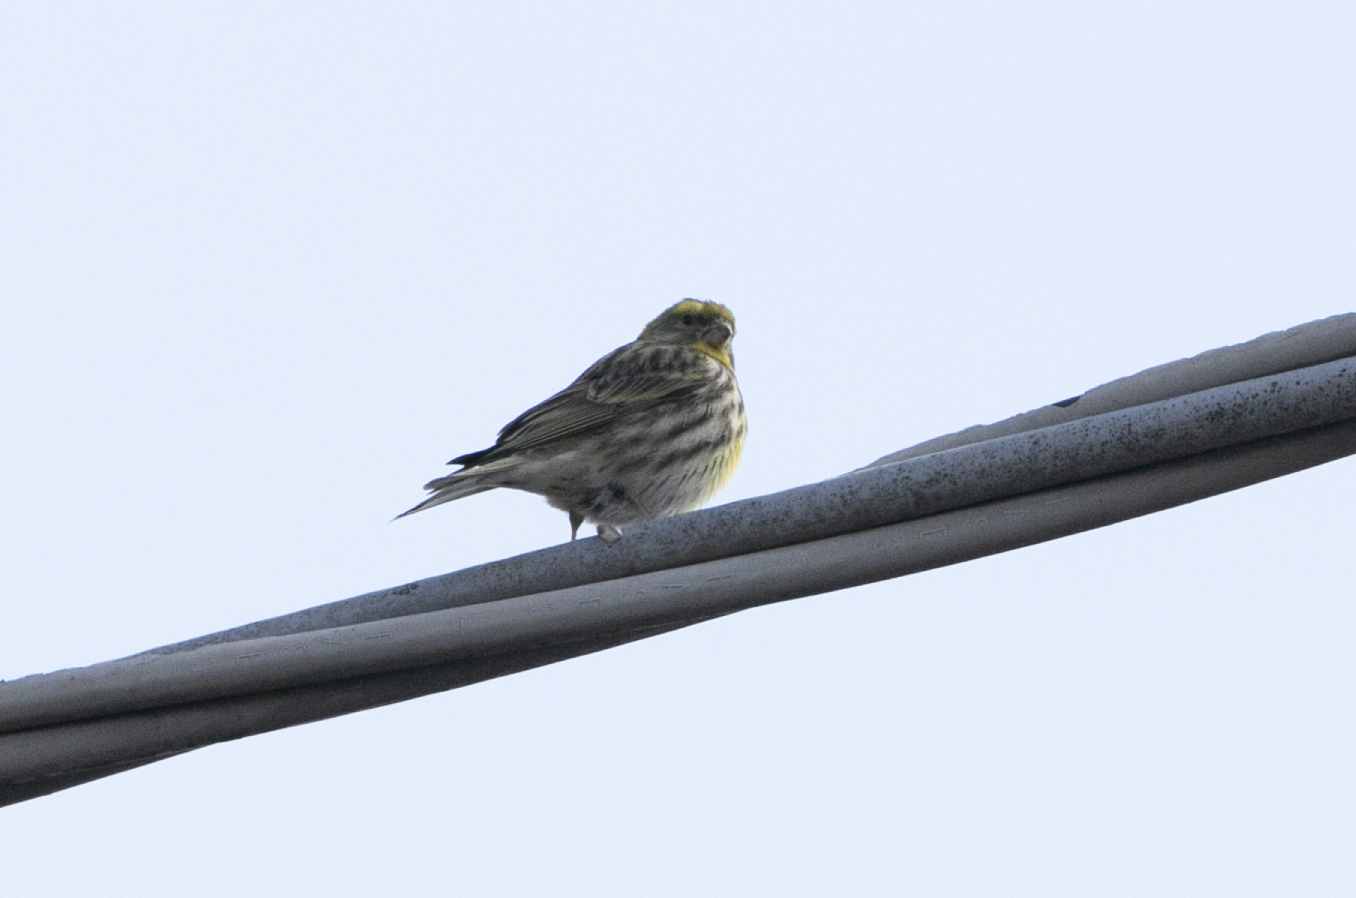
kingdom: Animalia
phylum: Chordata
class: Aves
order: Passeriformes
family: Fringillidae
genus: Serinus
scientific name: Serinus serinus
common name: European serin
